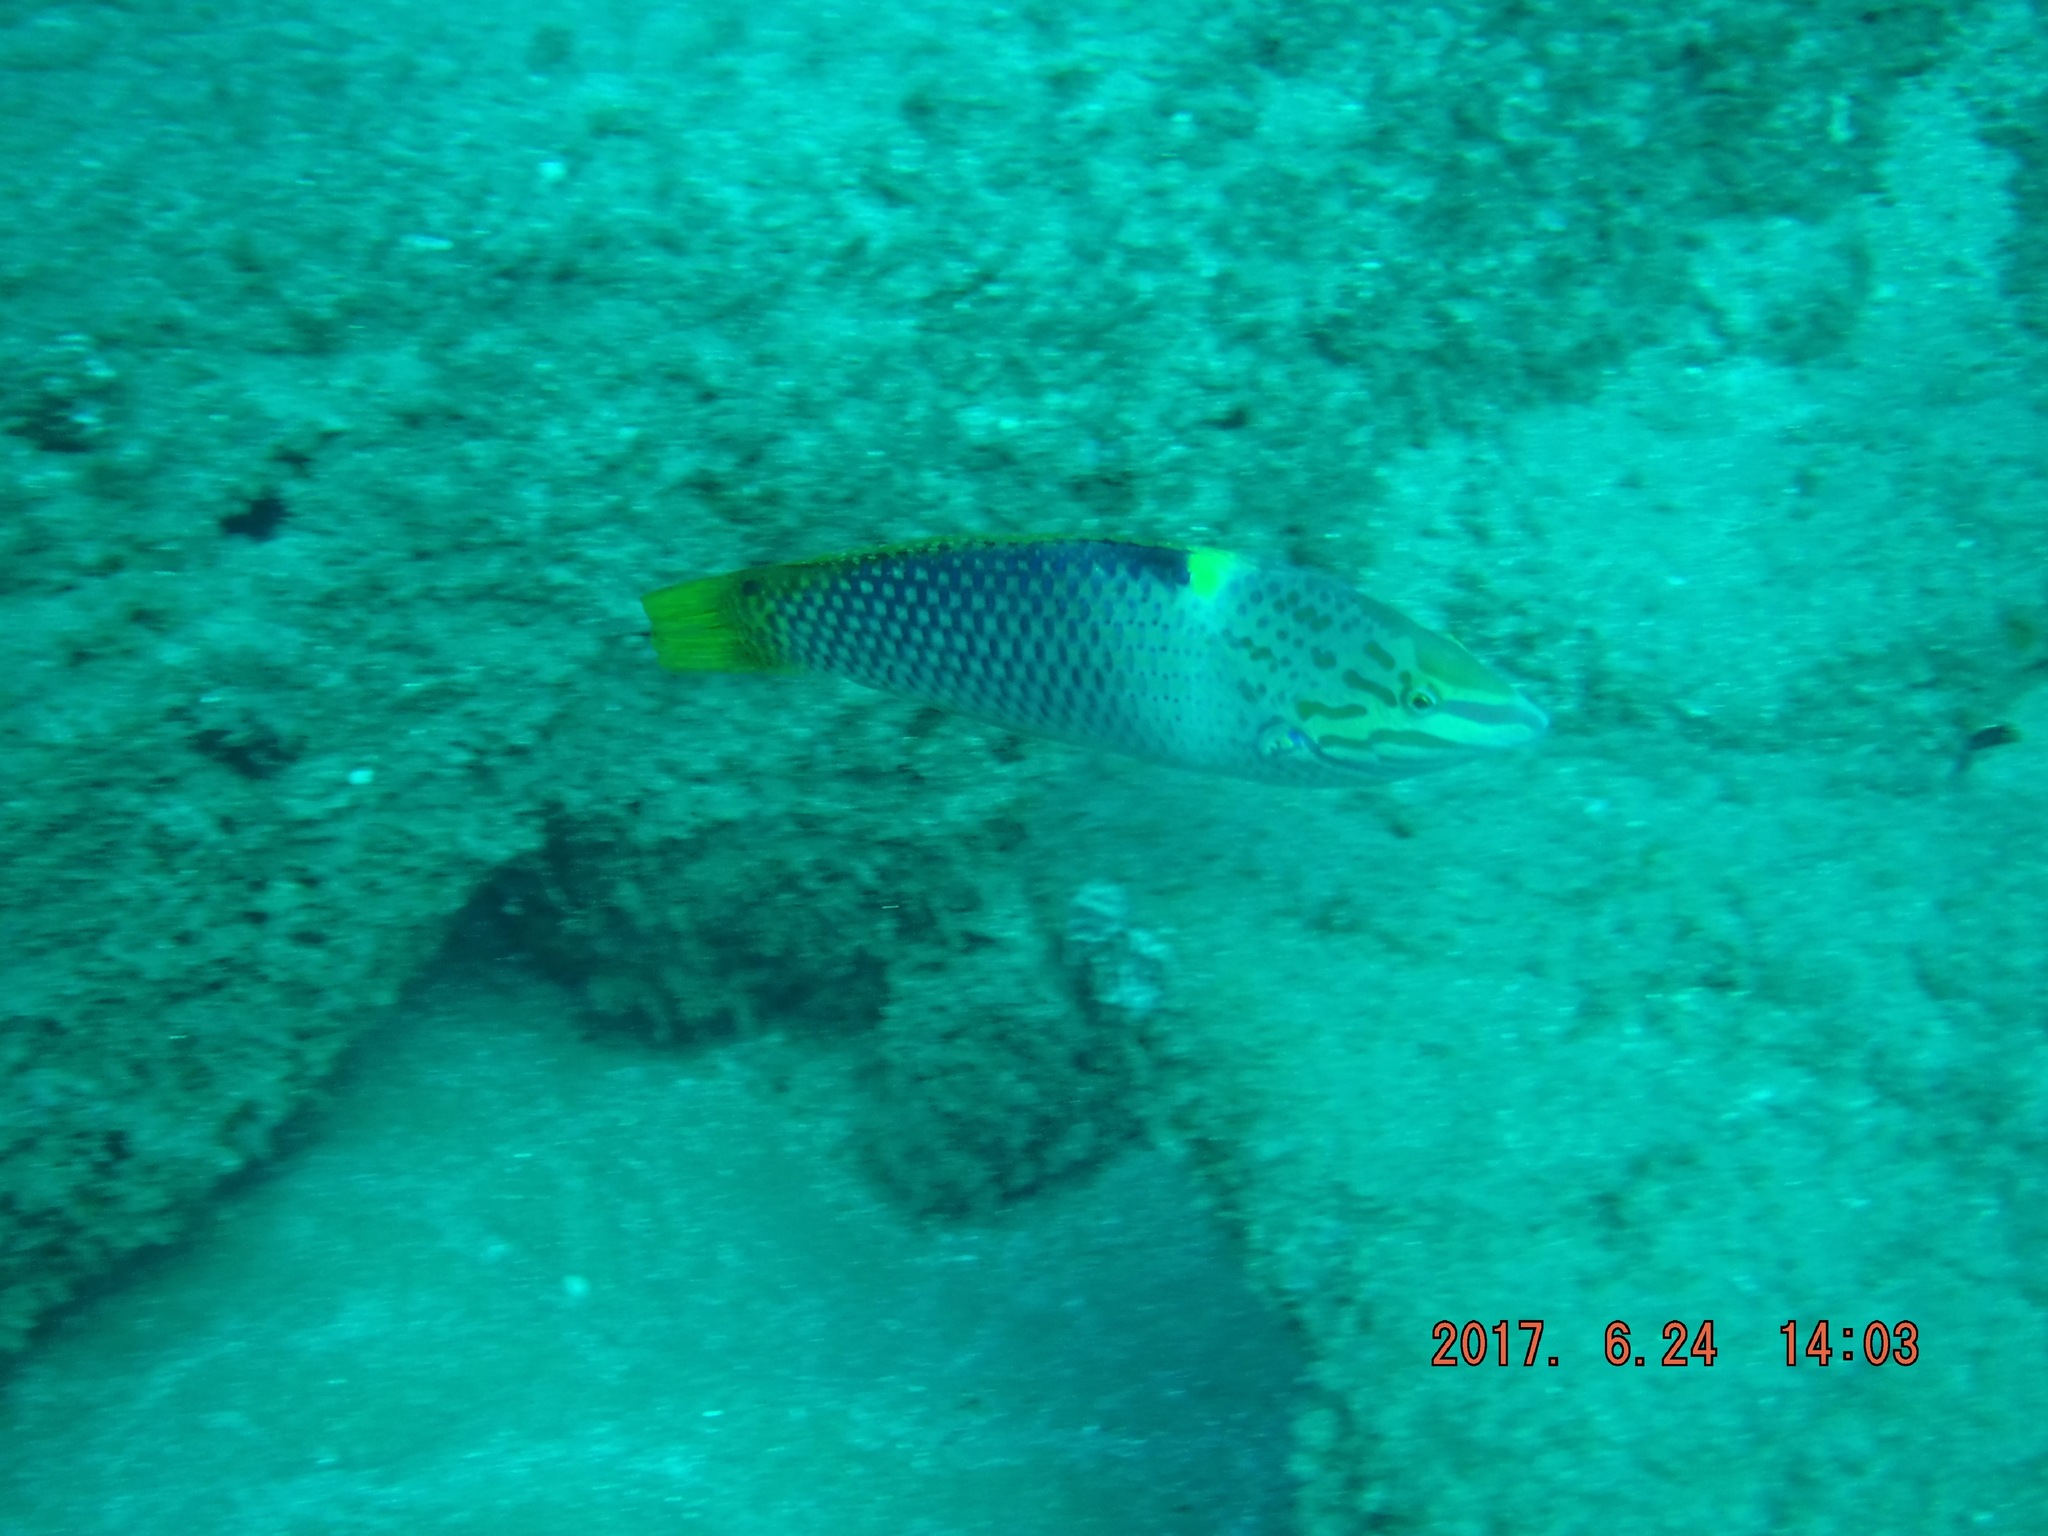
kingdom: Animalia
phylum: Chordata
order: Perciformes
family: Labridae
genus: Halichoeres
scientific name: Halichoeres hortulanus
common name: Checkerboard wrasse
